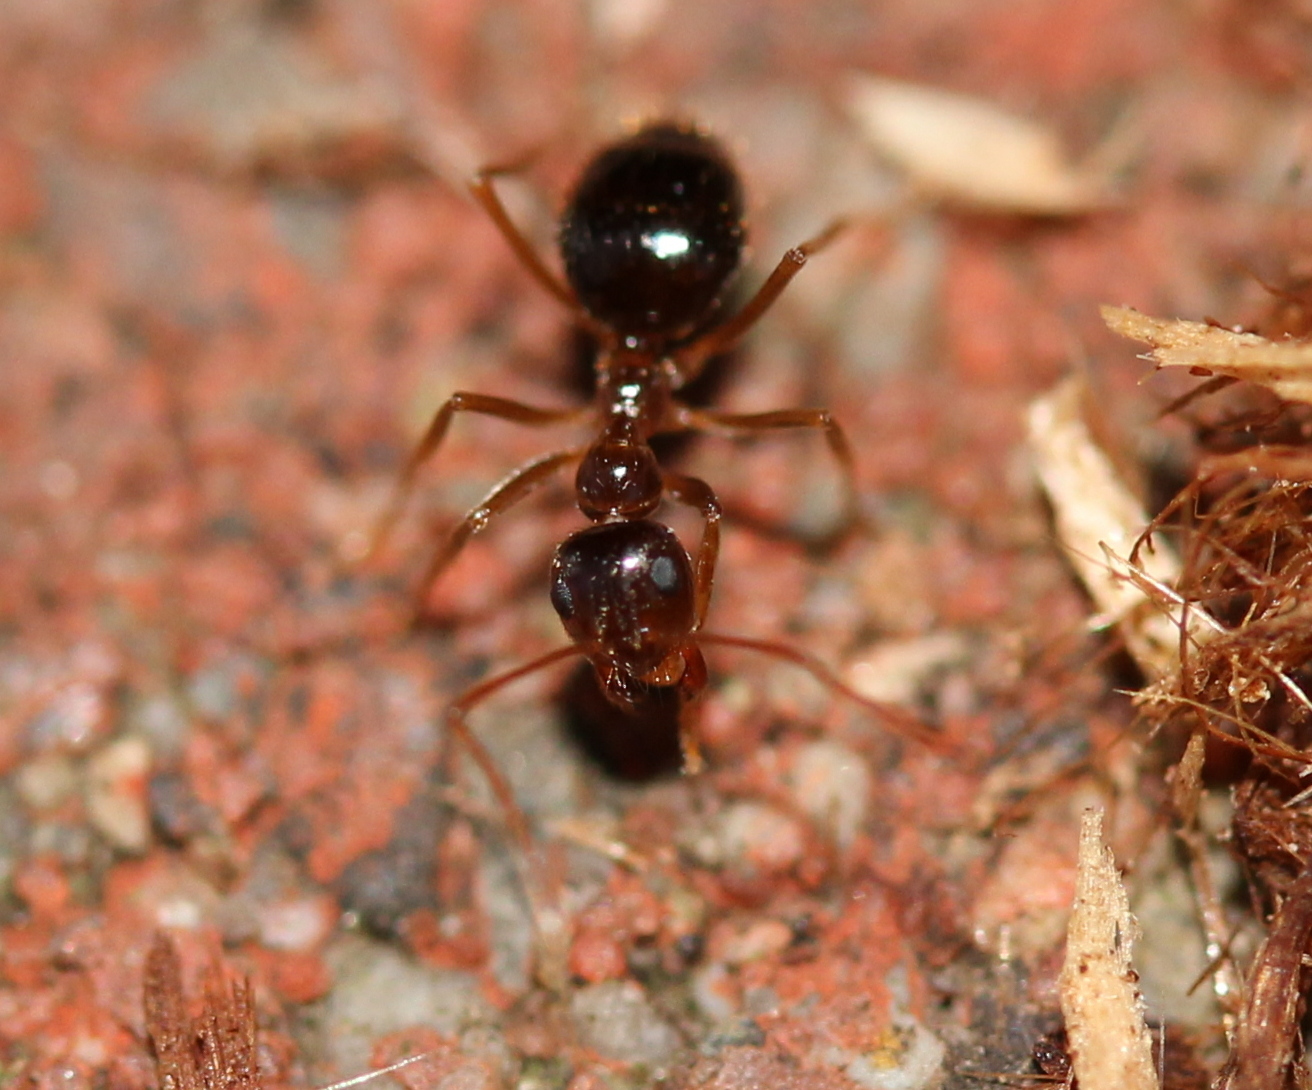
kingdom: Animalia
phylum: Arthropoda
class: Insecta
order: Hymenoptera
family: Formicidae
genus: Prenolepis
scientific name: Prenolepis imparis
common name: Small honey ant
